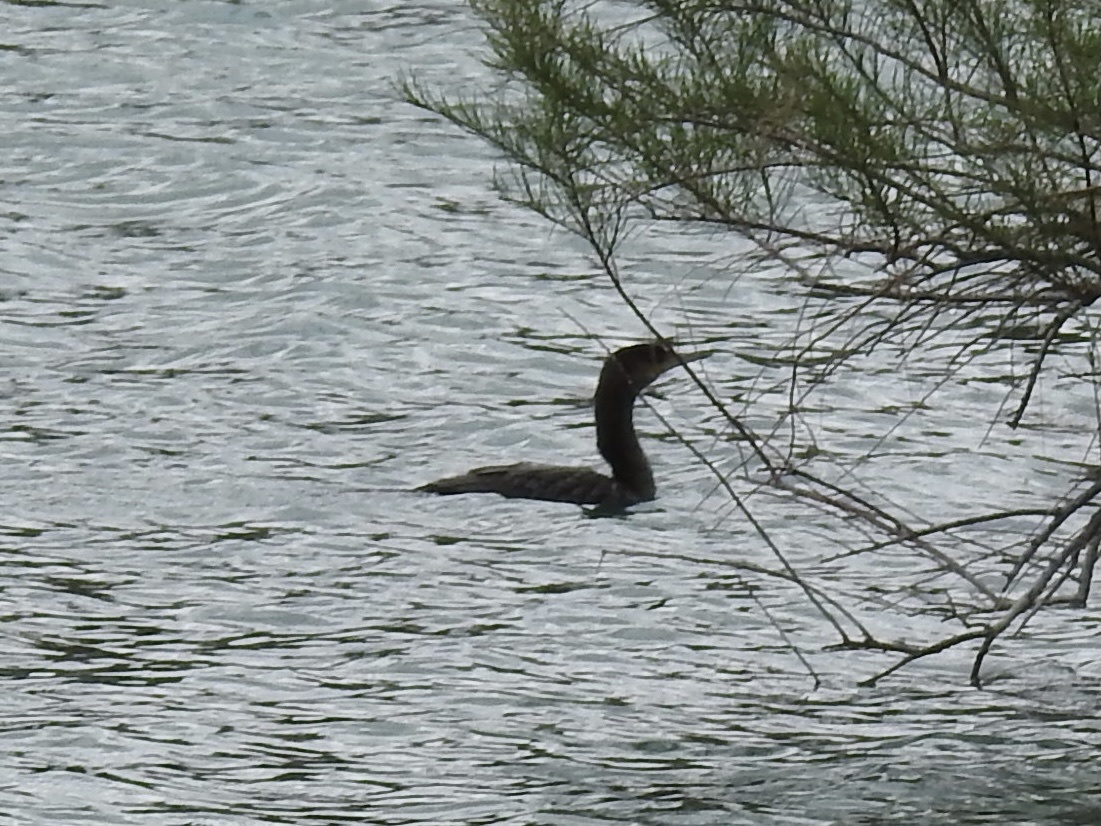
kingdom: Animalia
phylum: Chordata
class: Aves
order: Suliformes
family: Phalacrocoracidae
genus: Phalacrocorax
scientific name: Phalacrocorax brasilianus
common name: Neotropic cormorant
